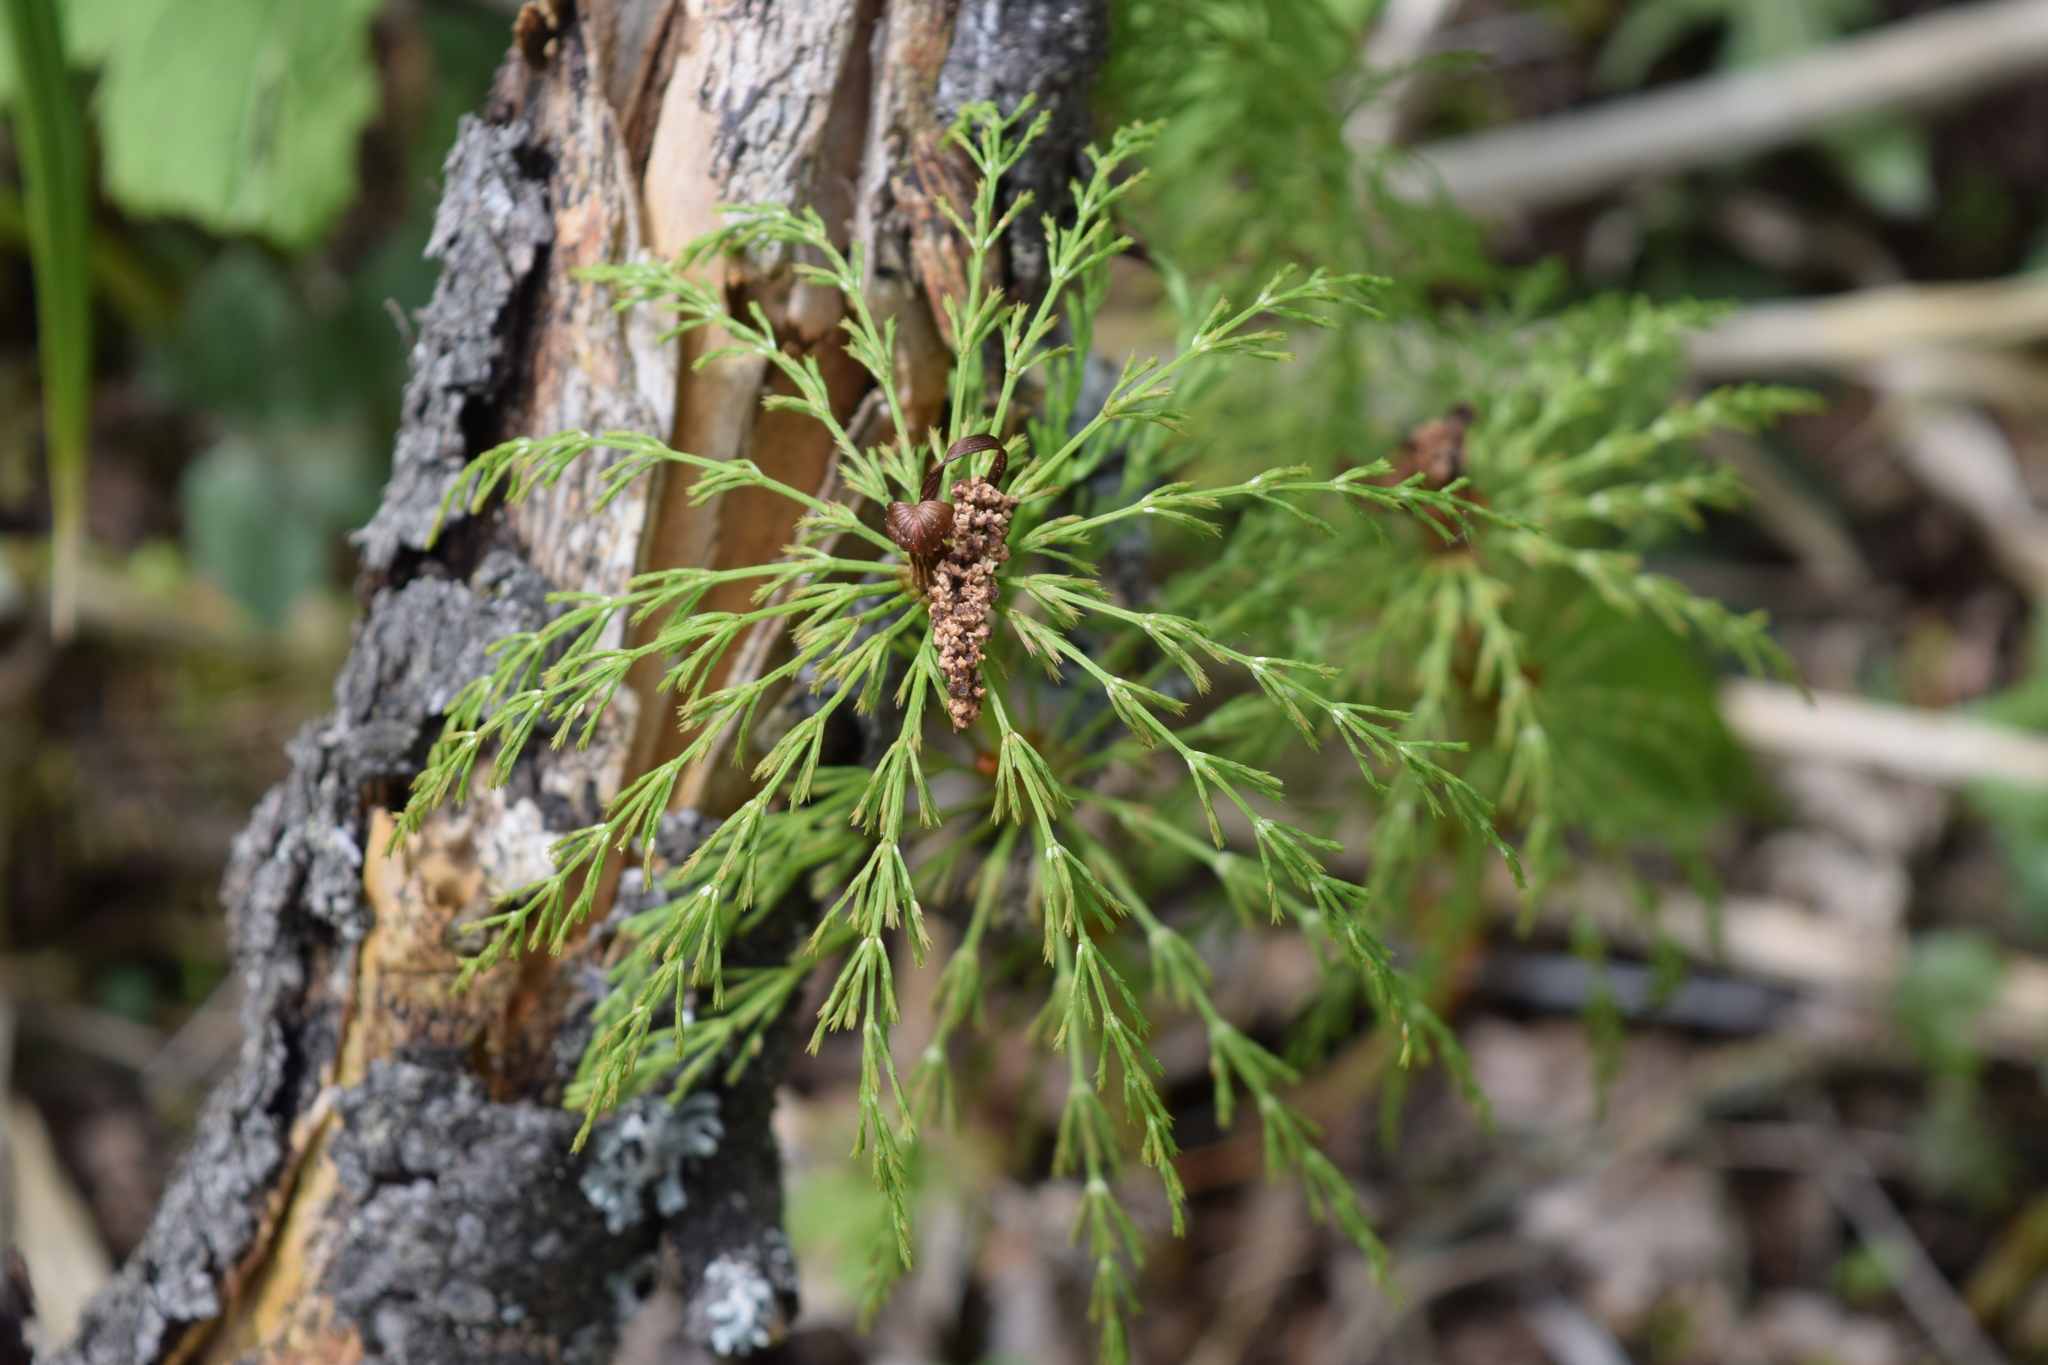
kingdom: Plantae
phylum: Tracheophyta
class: Polypodiopsida
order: Equisetales
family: Equisetaceae
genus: Equisetum
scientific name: Equisetum sylvaticum
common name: Wood horsetail
